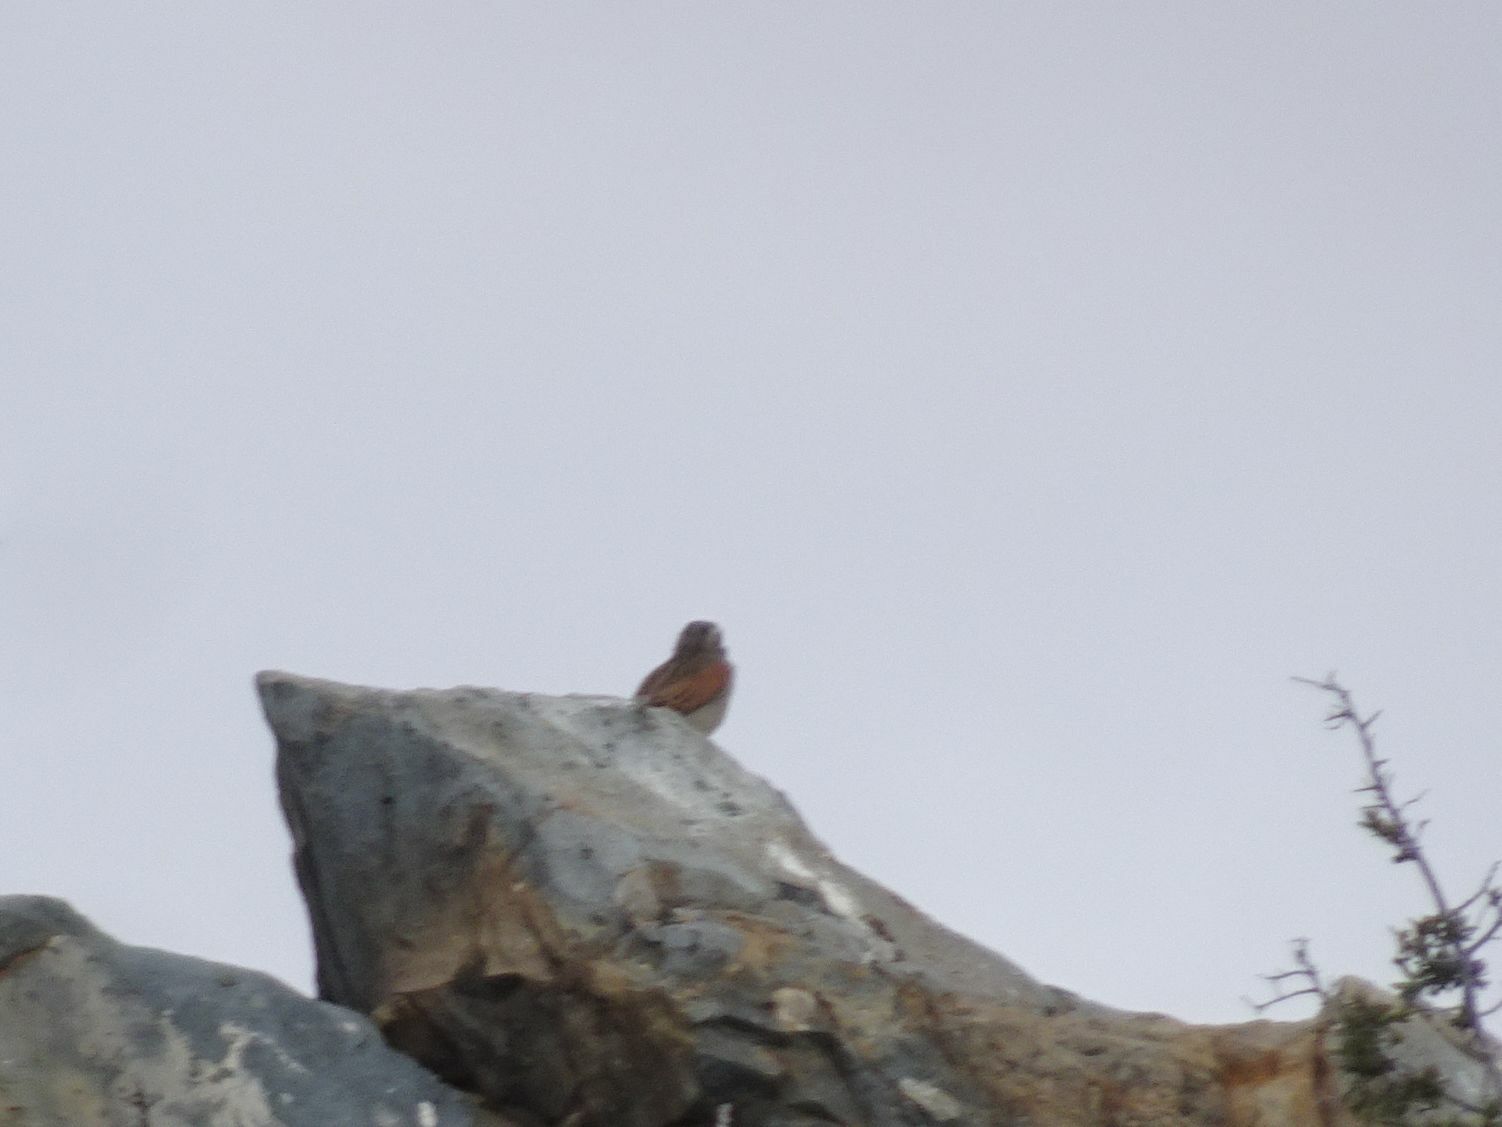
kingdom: Animalia
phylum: Chordata
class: Aves
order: Passeriformes
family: Emberizidae
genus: Emberiza
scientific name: Emberiza capensis
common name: Cape bunting
